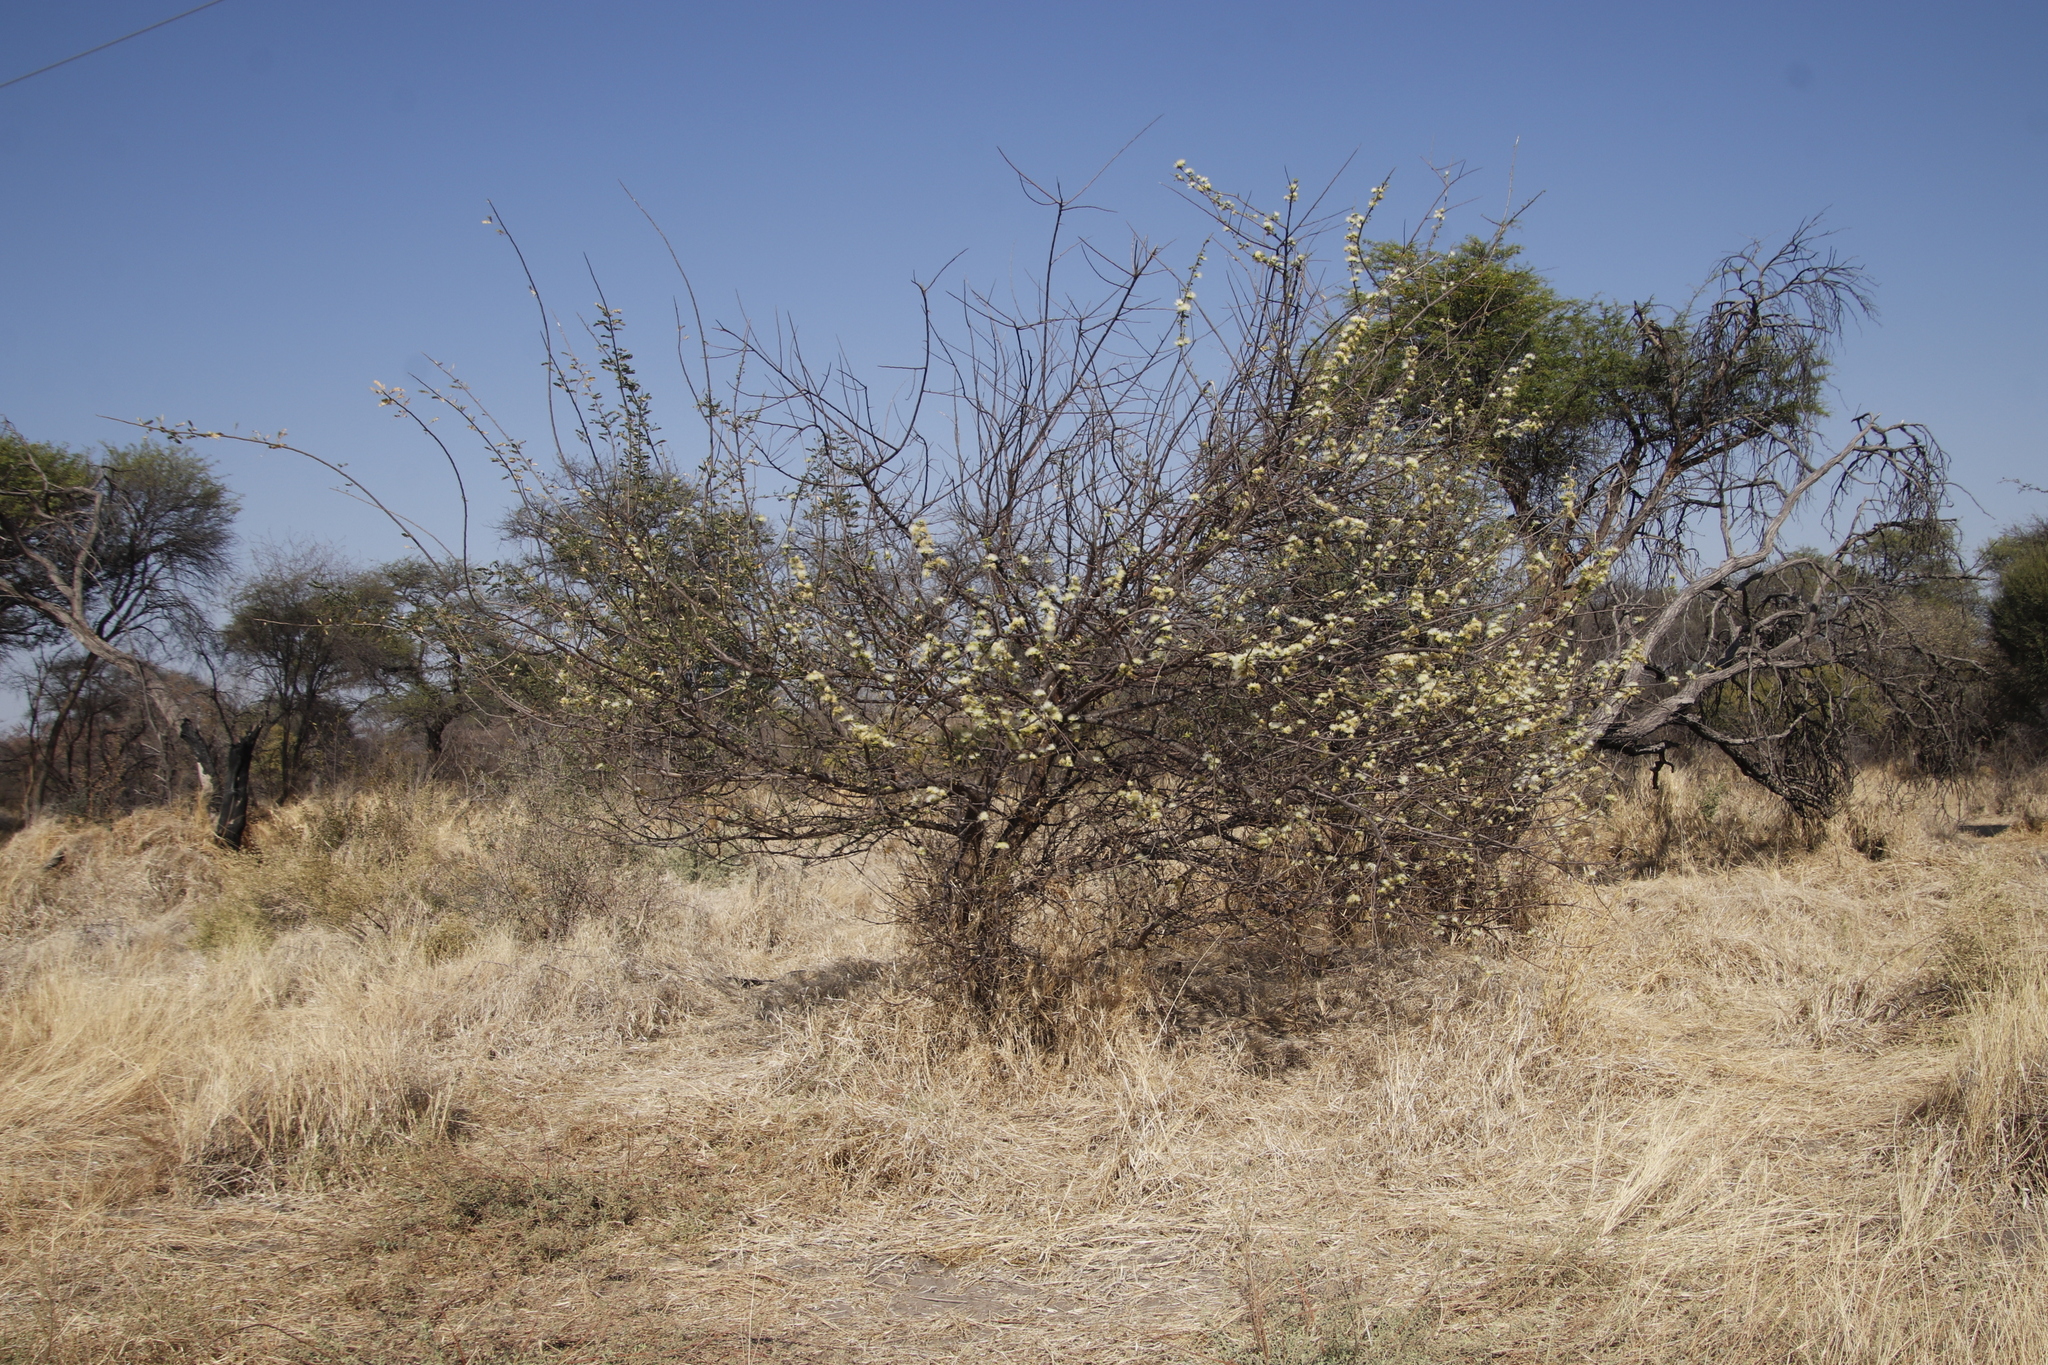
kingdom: Plantae
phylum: Tracheophyta
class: Magnoliopsida
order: Fabales
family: Fabaceae
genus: Albizia
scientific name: Albizia anthelmintica
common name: Worm-bark false-thorn
